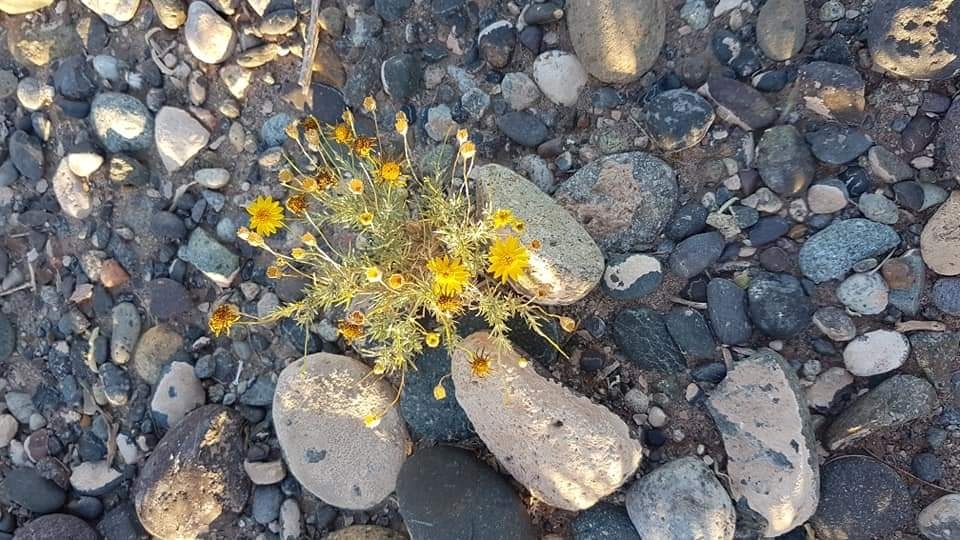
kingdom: Plantae
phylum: Tracheophyta
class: Magnoliopsida
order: Asterales
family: Asteraceae
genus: Thymophylla
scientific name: Thymophylla pentachaeta
